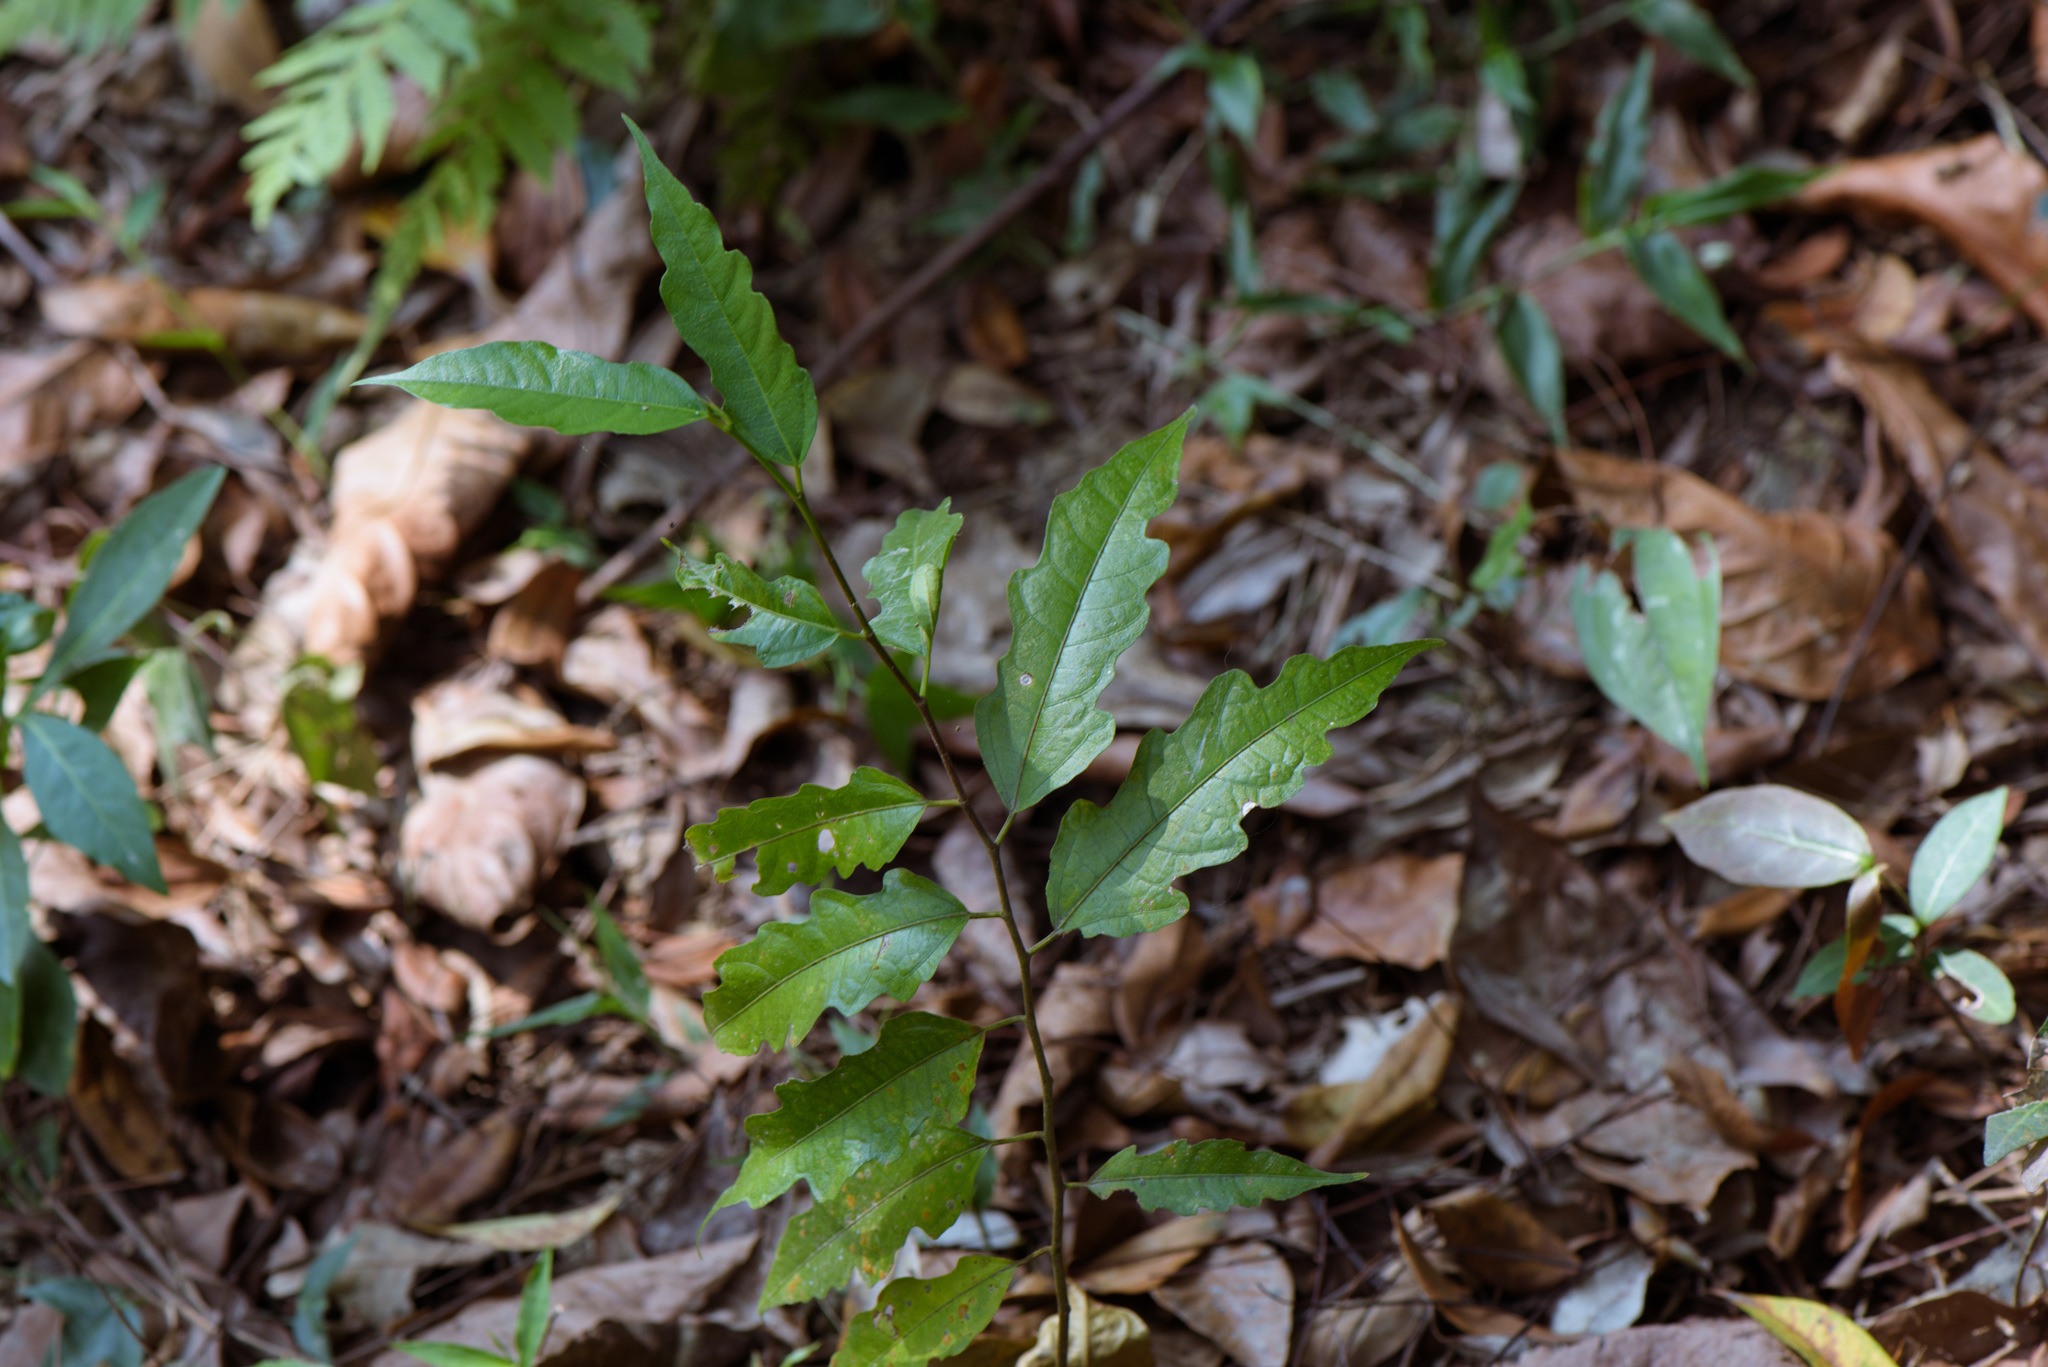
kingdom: Plantae
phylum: Tracheophyta
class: Magnoliopsida
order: Rosales
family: Moraceae
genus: Ficus
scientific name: Ficus ampelos
